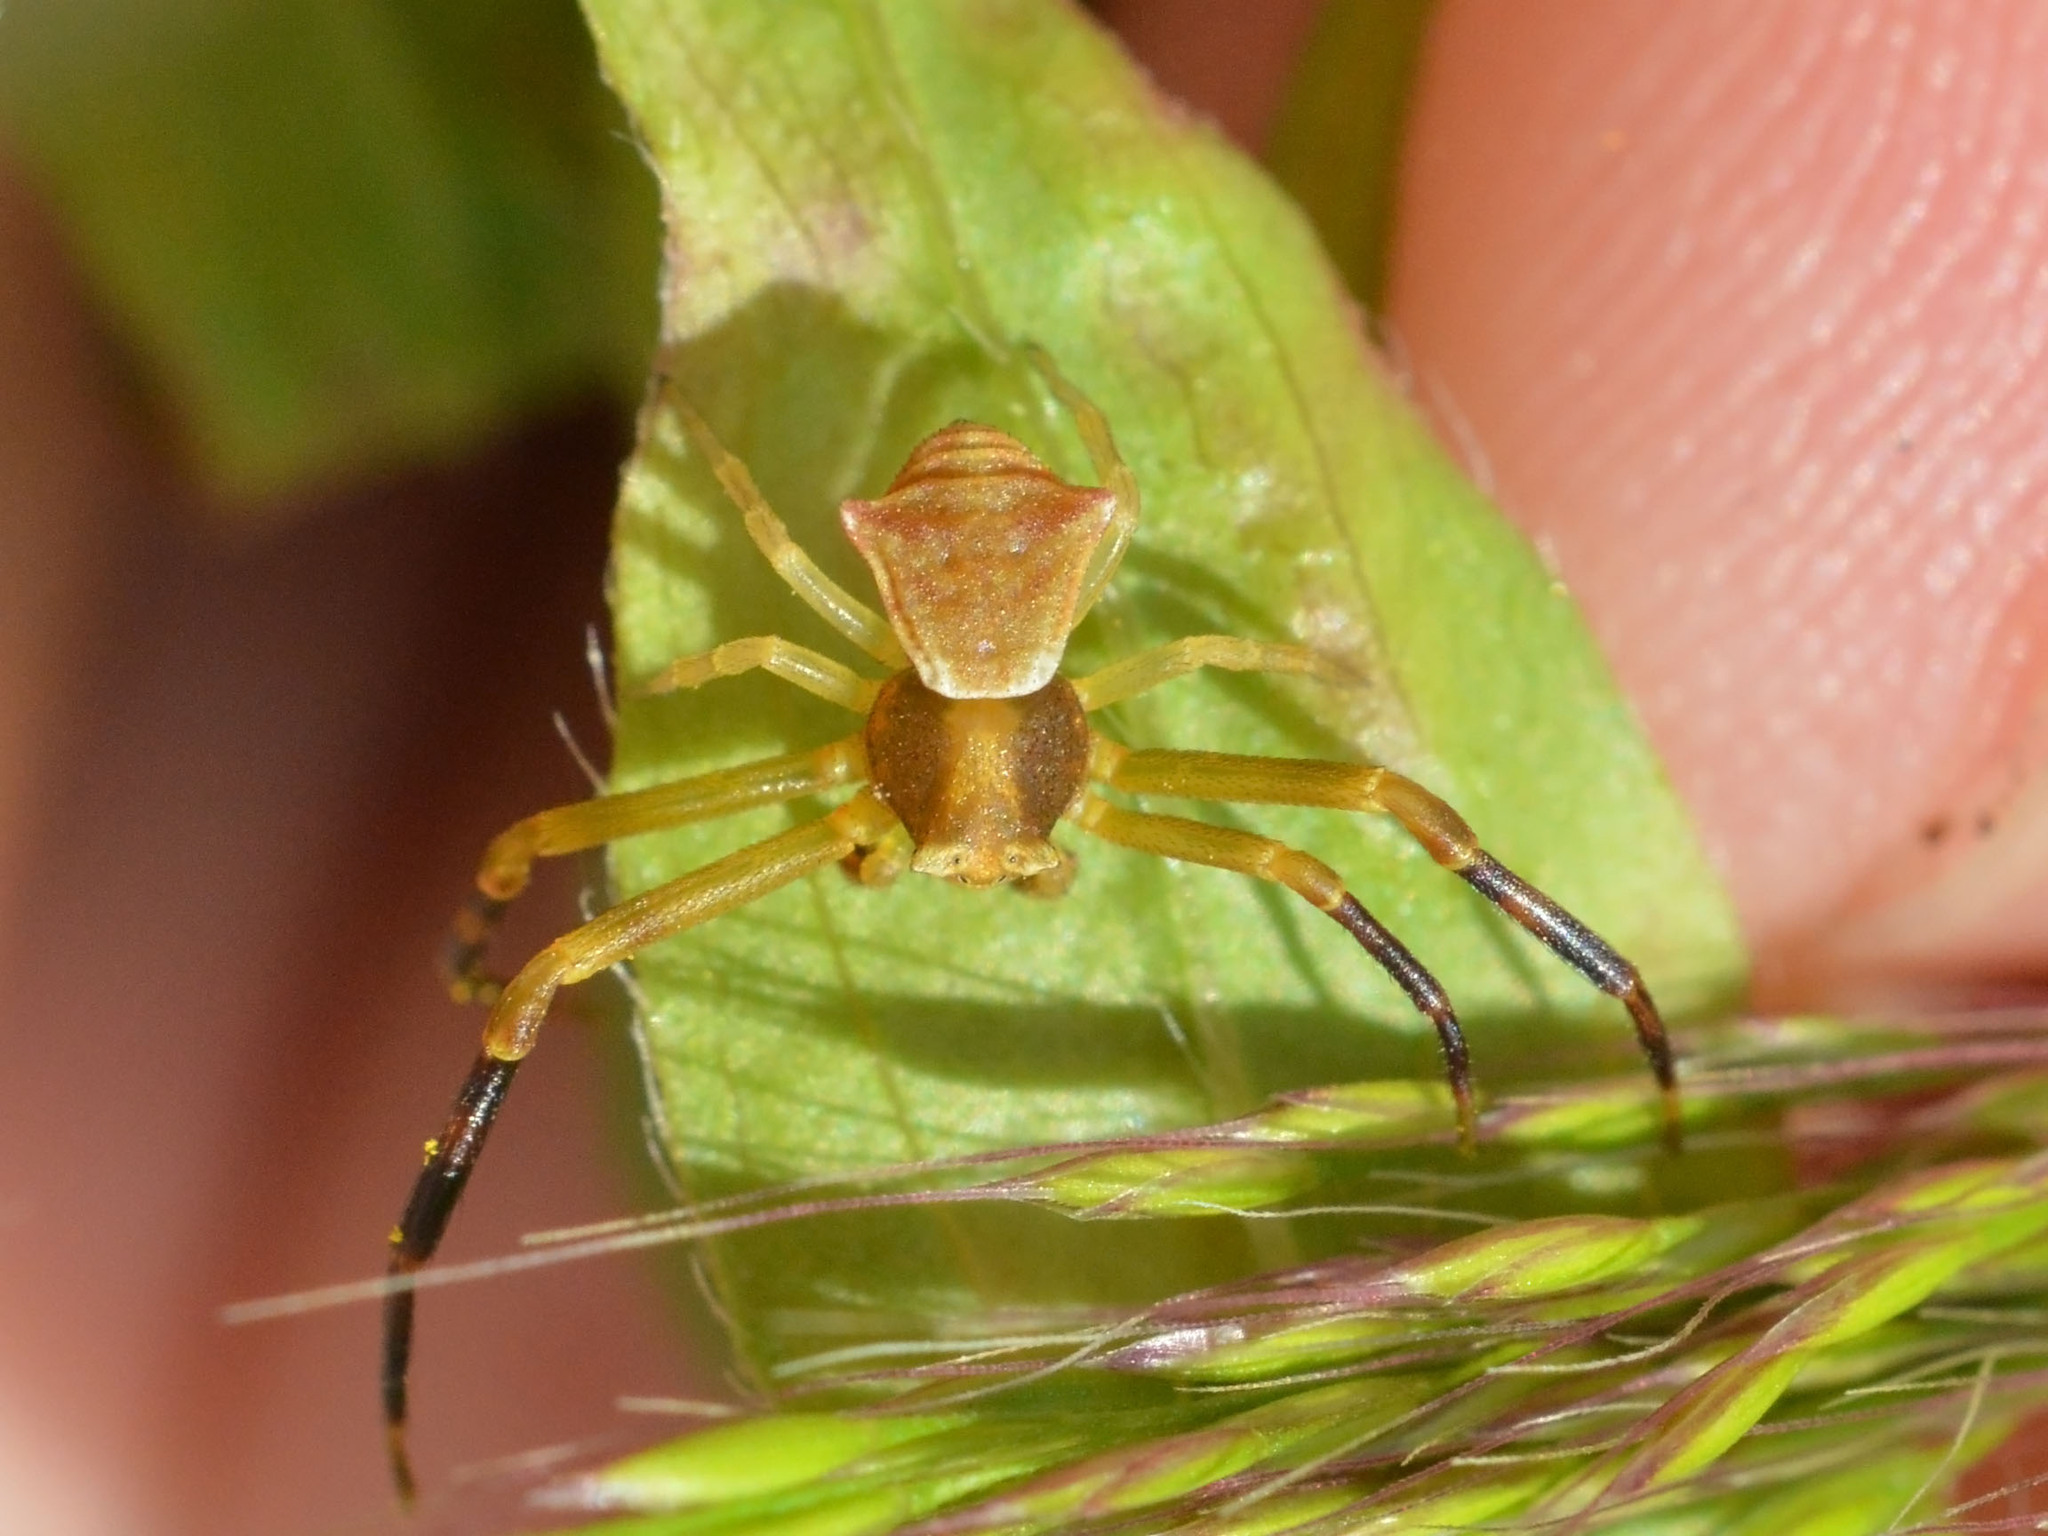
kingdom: Animalia
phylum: Arthropoda
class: Arachnida
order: Araneae
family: Thomisidae
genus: Thomisus
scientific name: Thomisus onustus
